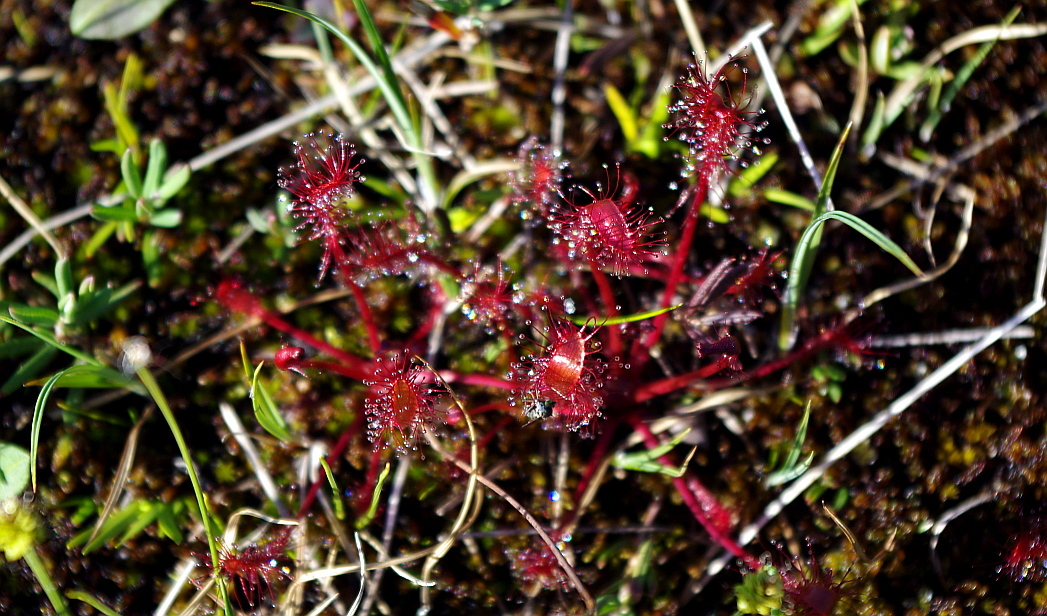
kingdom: Plantae
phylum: Tracheophyta
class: Magnoliopsida
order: Caryophyllales
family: Droseraceae
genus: Drosera
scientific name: Drosera anglica
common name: Great sundew
